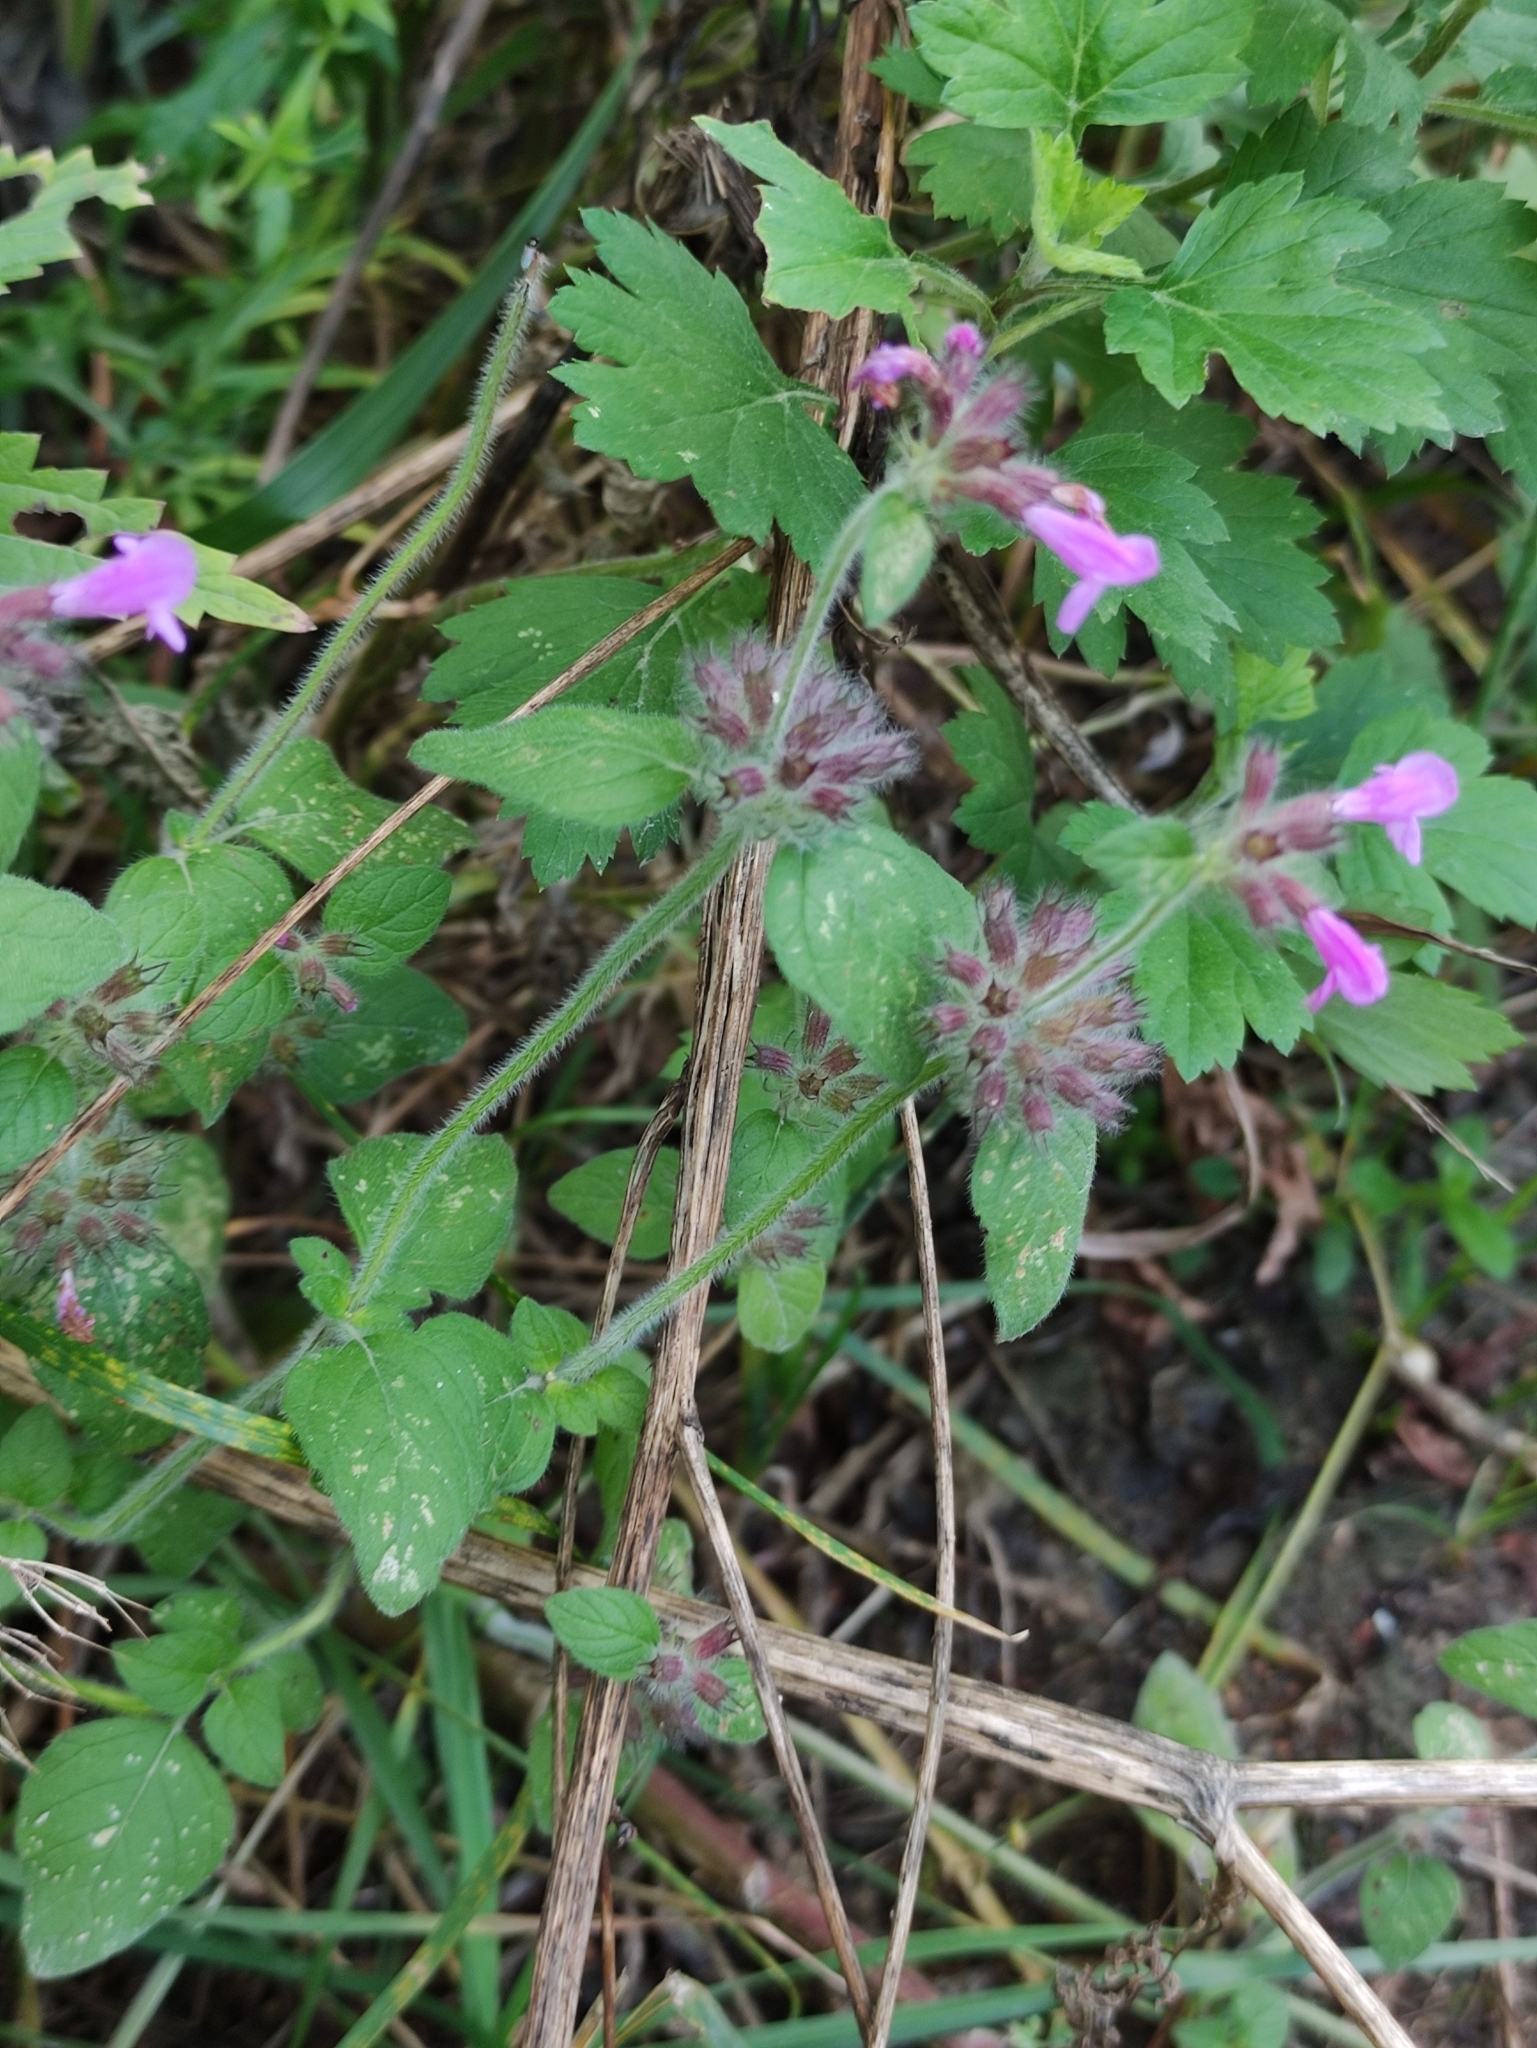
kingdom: Plantae
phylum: Tracheophyta
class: Magnoliopsida
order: Lamiales
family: Lamiaceae
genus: Clinopodium
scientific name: Clinopodium vulgare
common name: Wild basil
